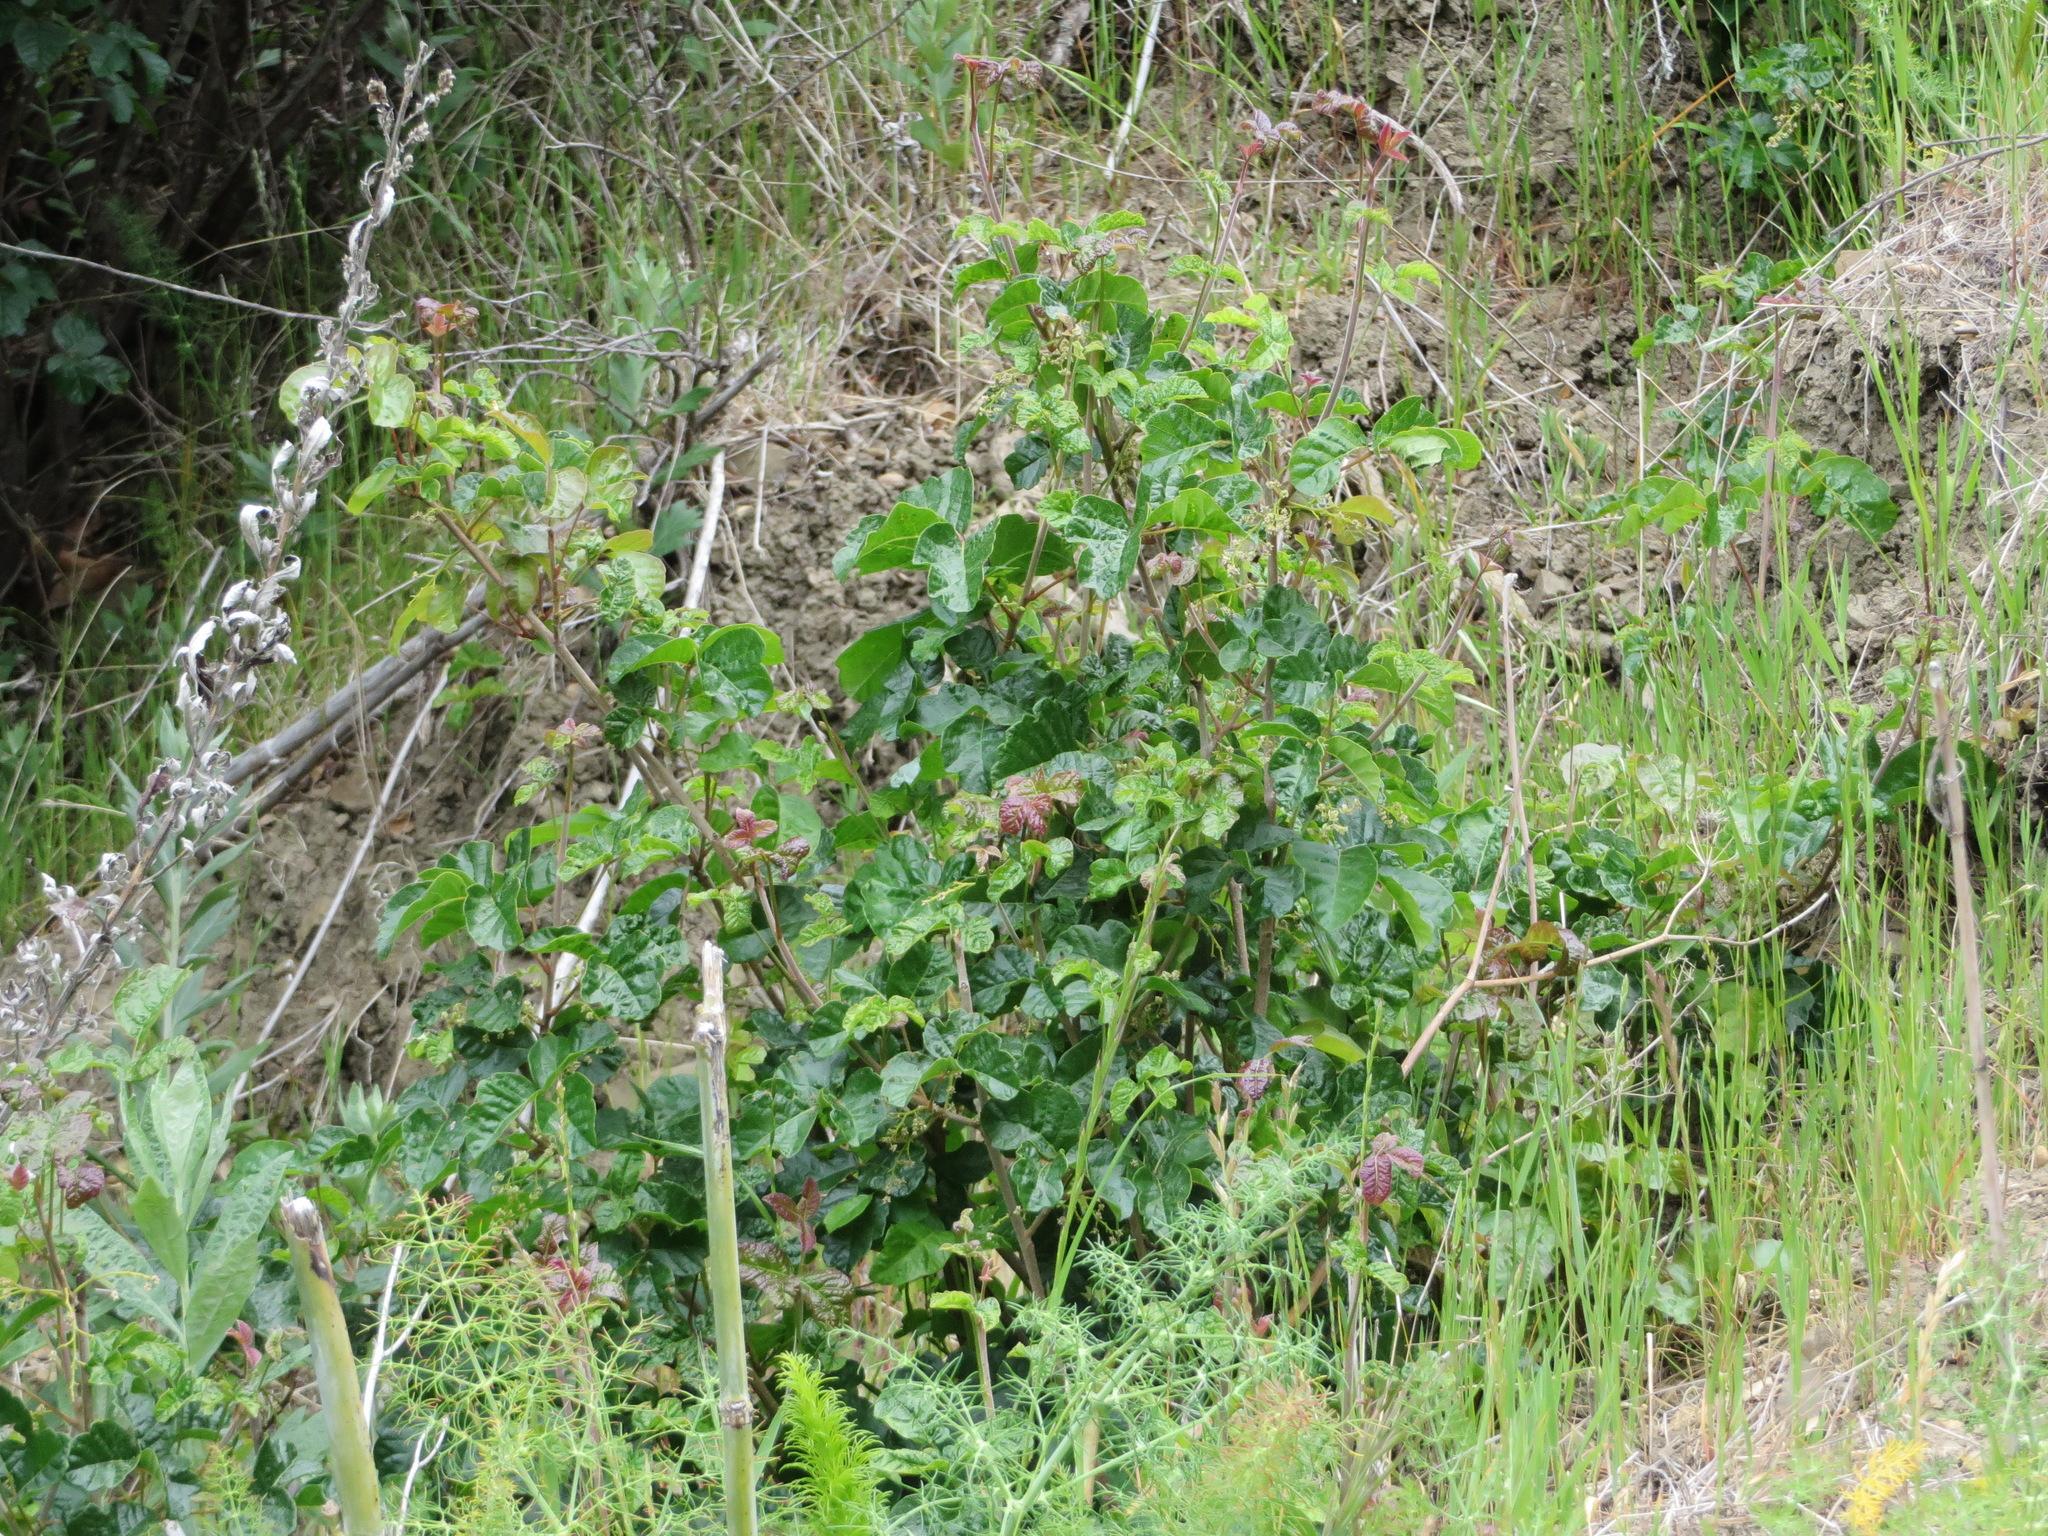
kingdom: Plantae
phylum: Tracheophyta
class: Magnoliopsida
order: Sapindales
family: Anacardiaceae
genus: Toxicodendron
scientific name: Toxicodendron diversilobum
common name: Pacific poison-oak
